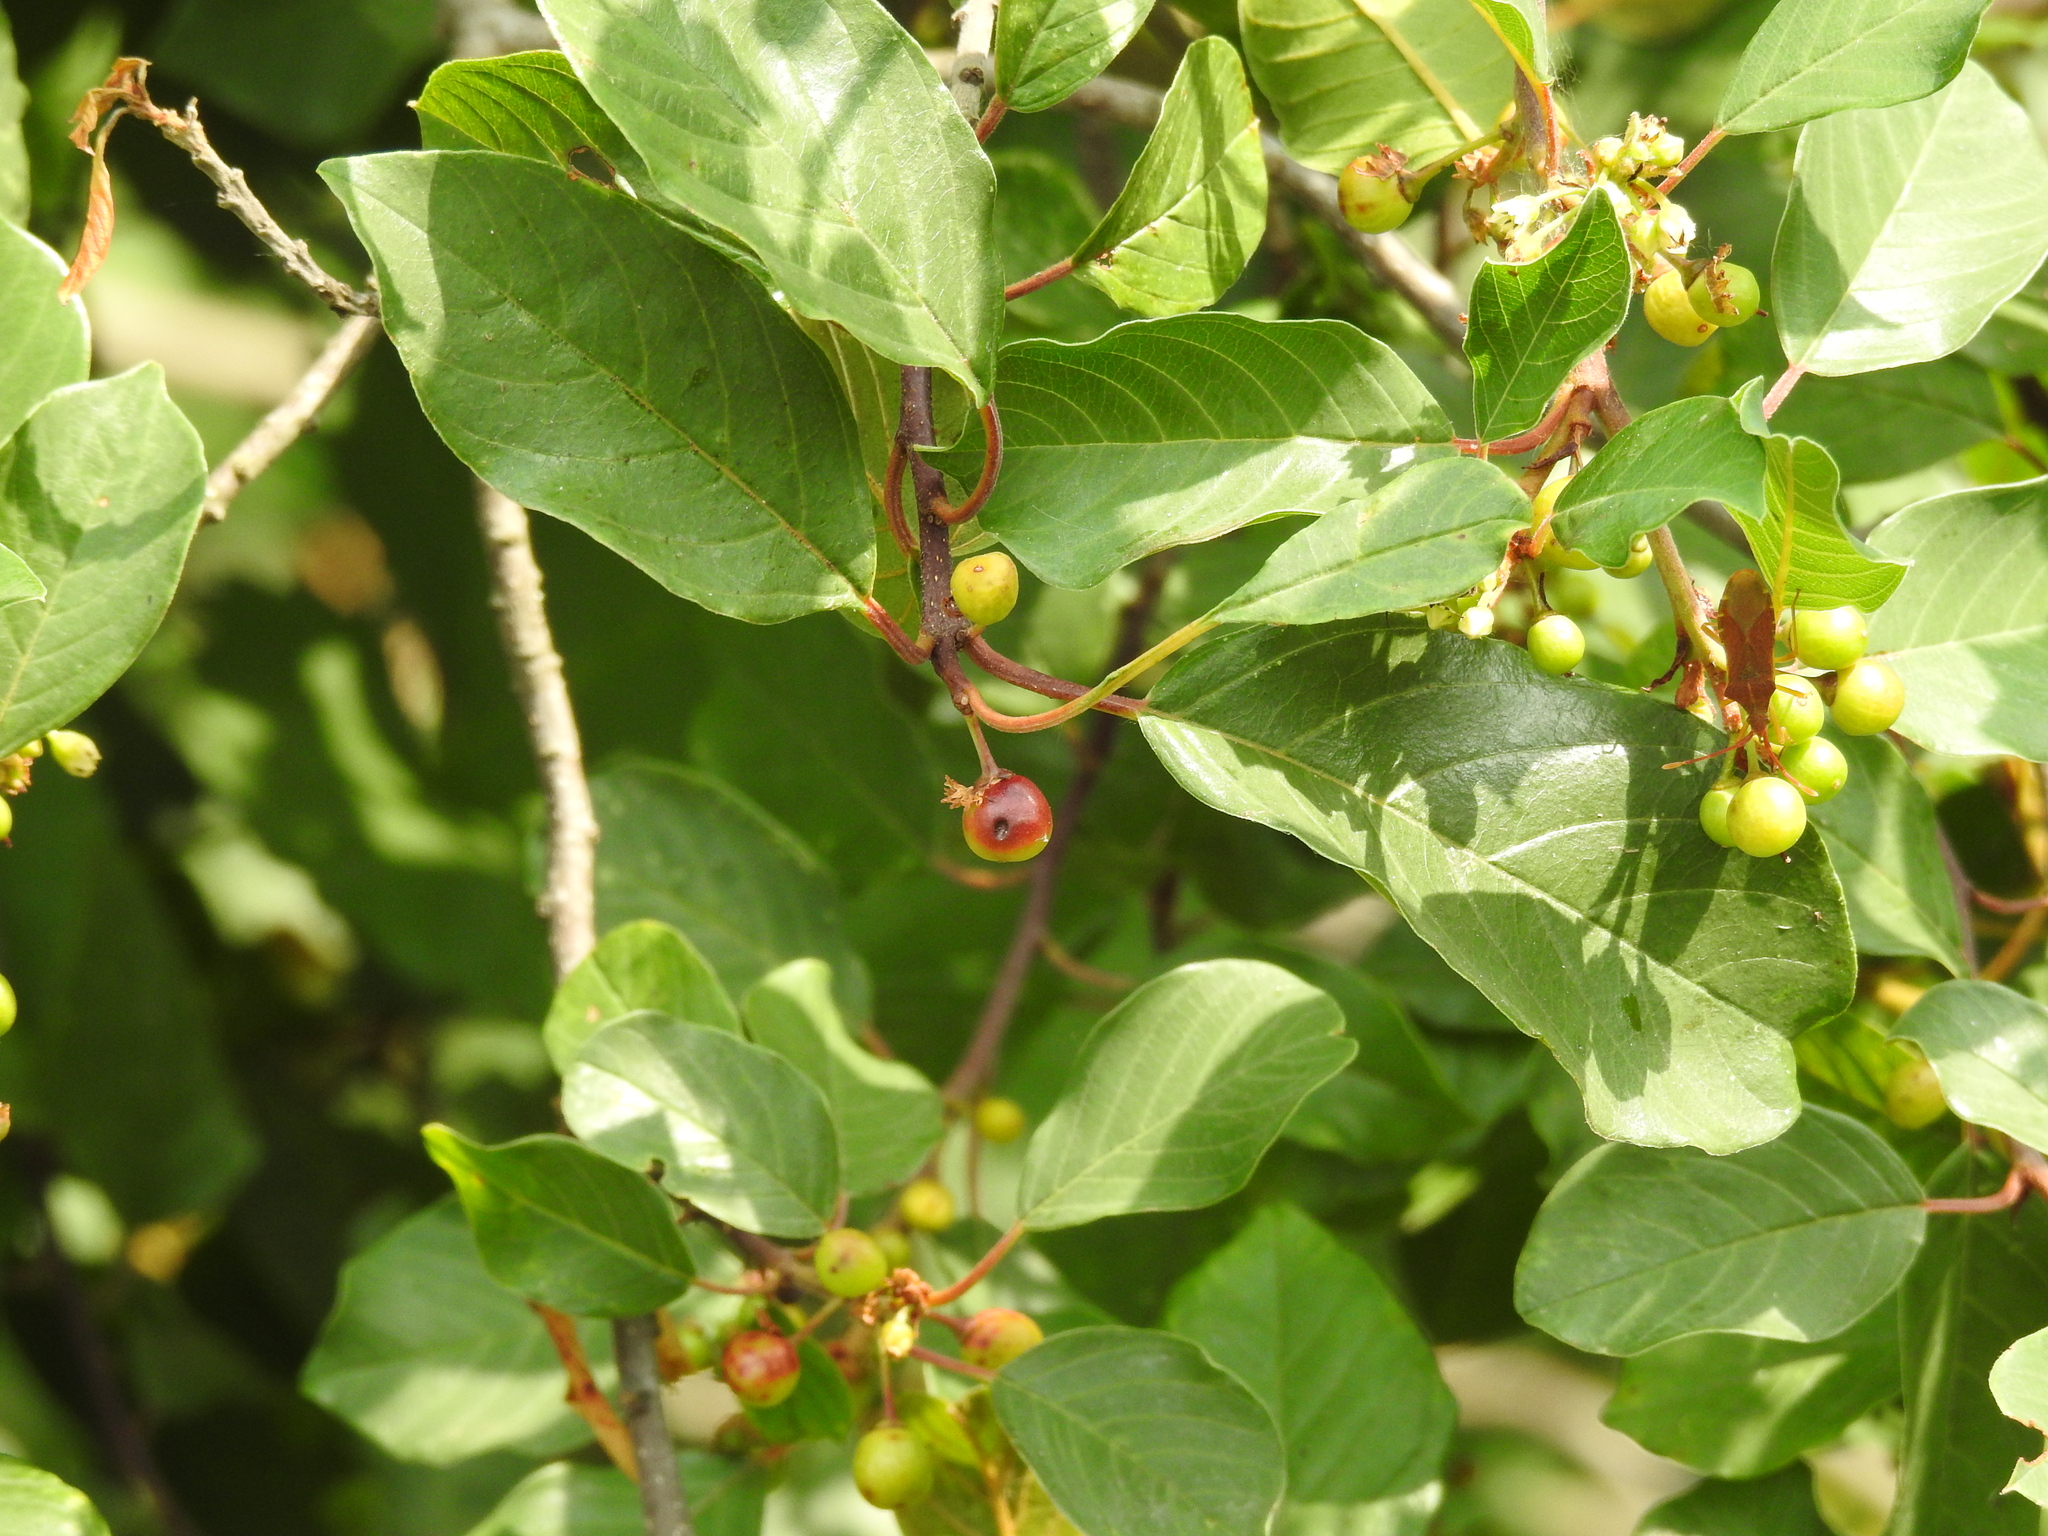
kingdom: Plantae
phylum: Tracheophyta
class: Magnoliopsida
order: Rosales
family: Rhamnaceae
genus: Frangula
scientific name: Frangula alnus
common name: Alder buckthorn
